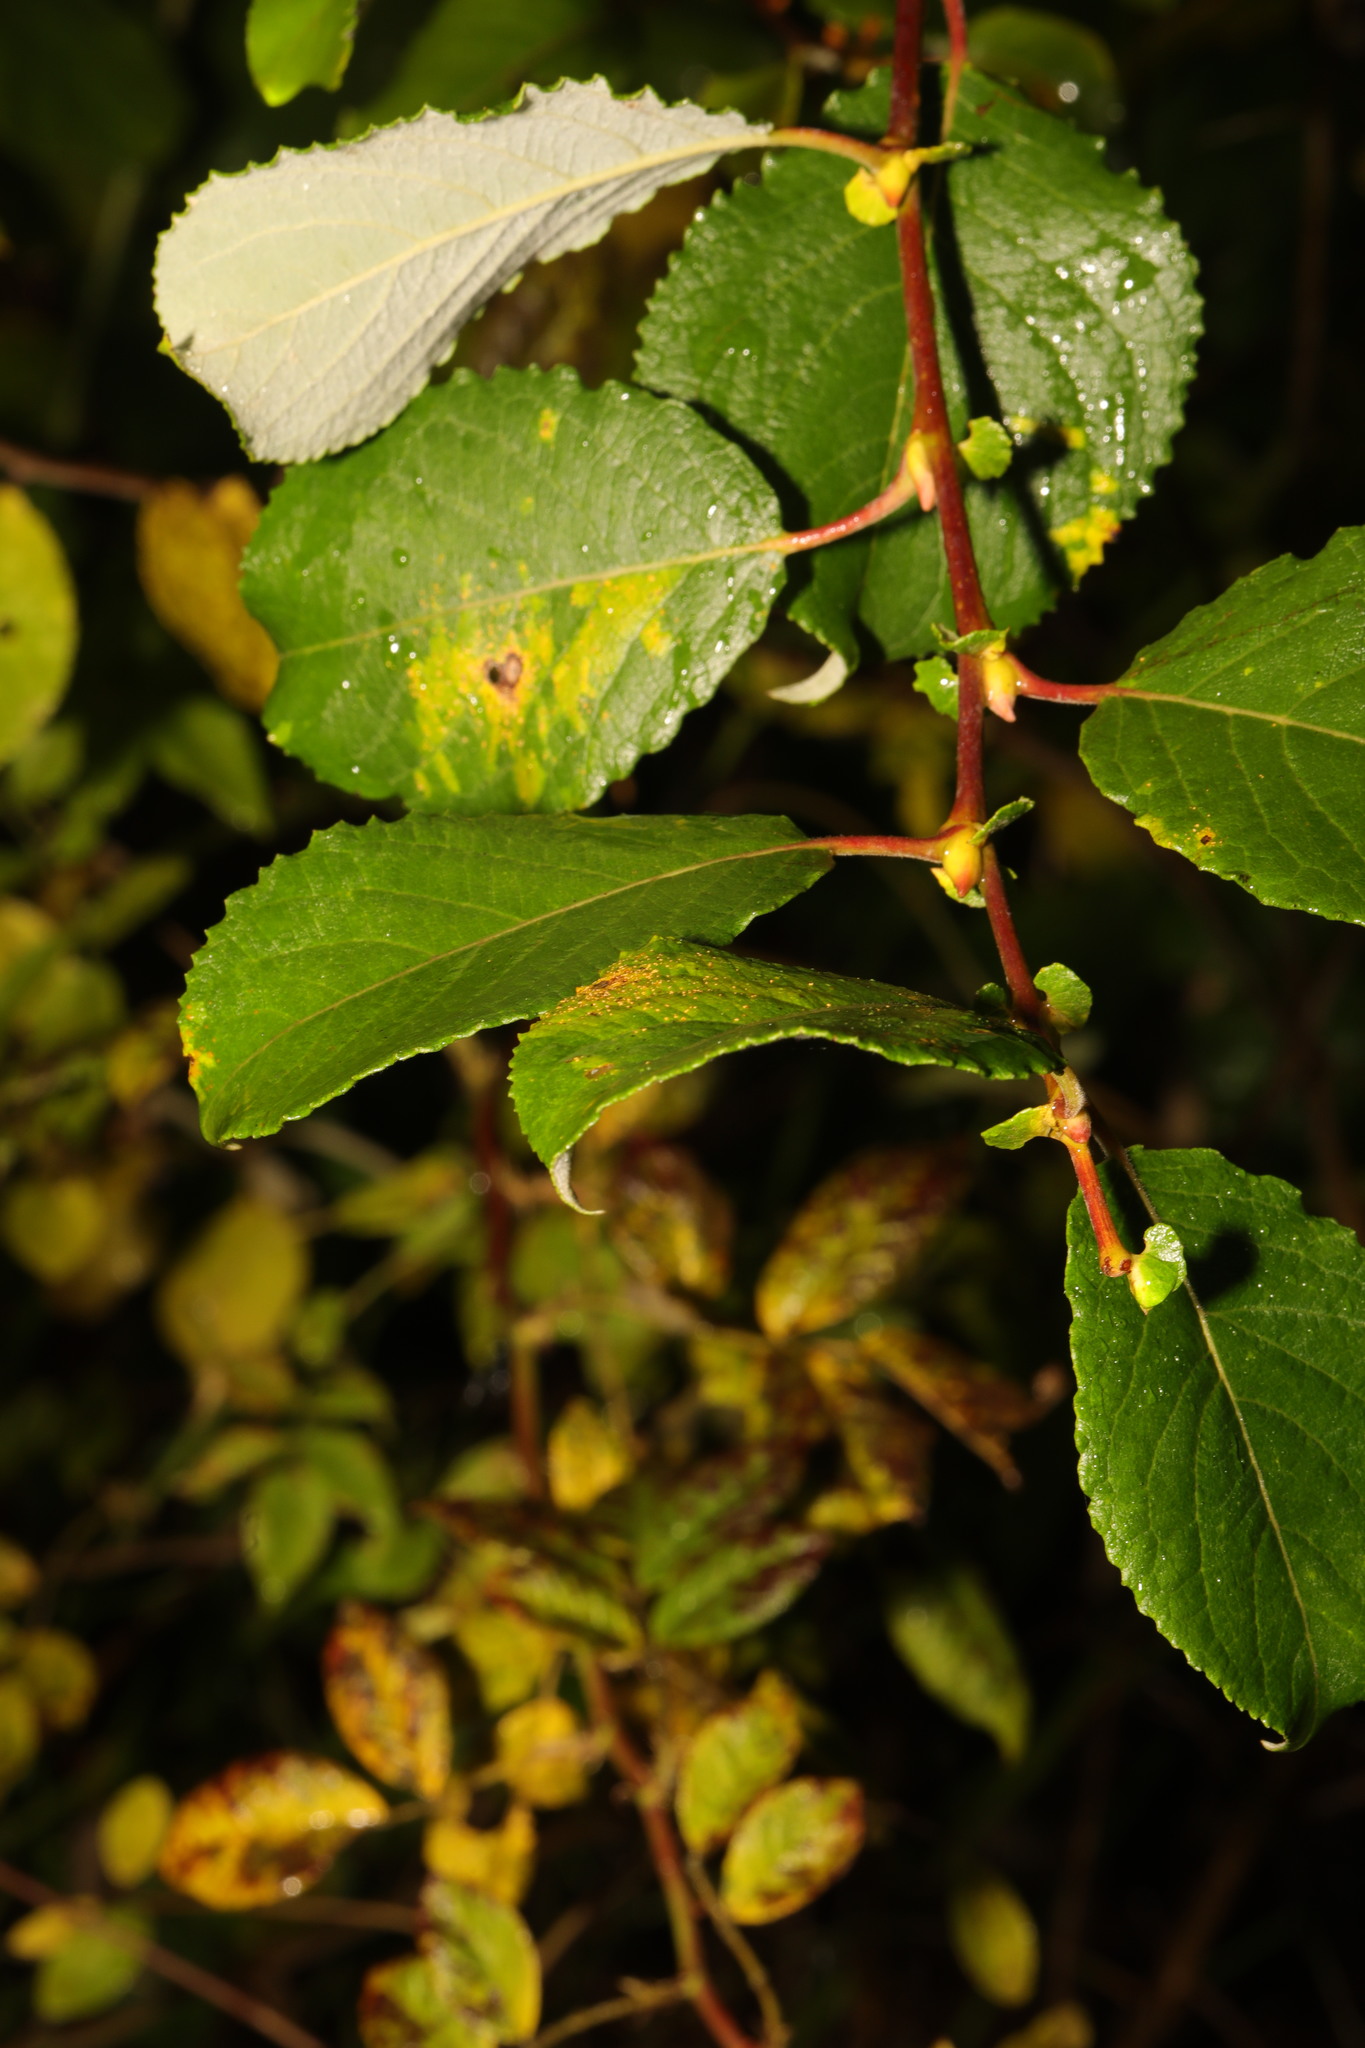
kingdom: Plantae
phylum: Tracheophyta
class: Magnoliopsida
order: Malpighiales
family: Salicaceae
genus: Salix
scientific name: Salix caprea
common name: Goat willow
